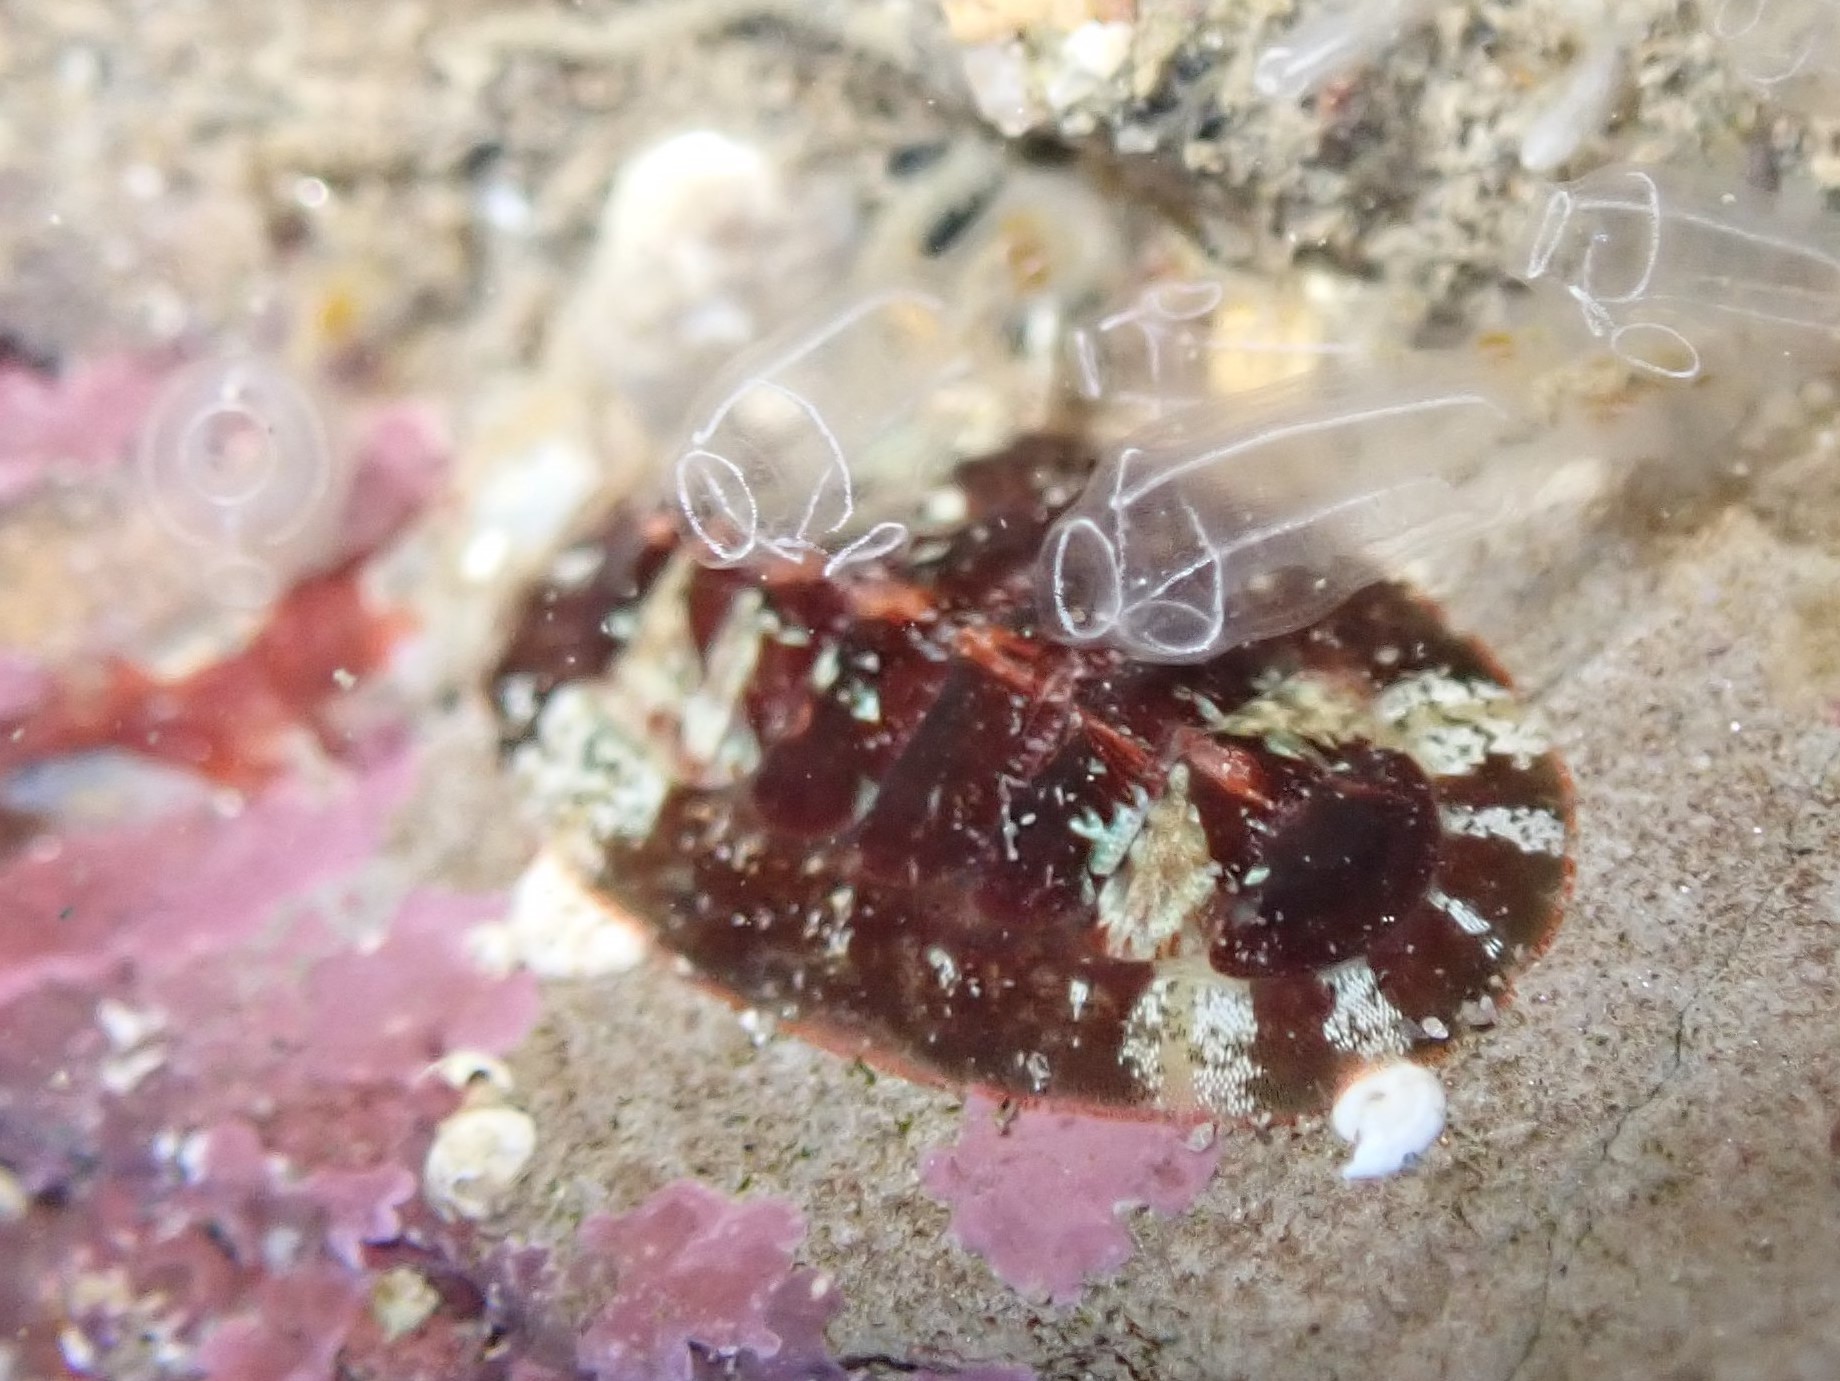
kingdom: Animalia
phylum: Mollusca
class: Polyplacophora
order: Callochitonida
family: Callochitonidae
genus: Callochiton
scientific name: Callochiton septemvalvis
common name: Sevenplated chiton
